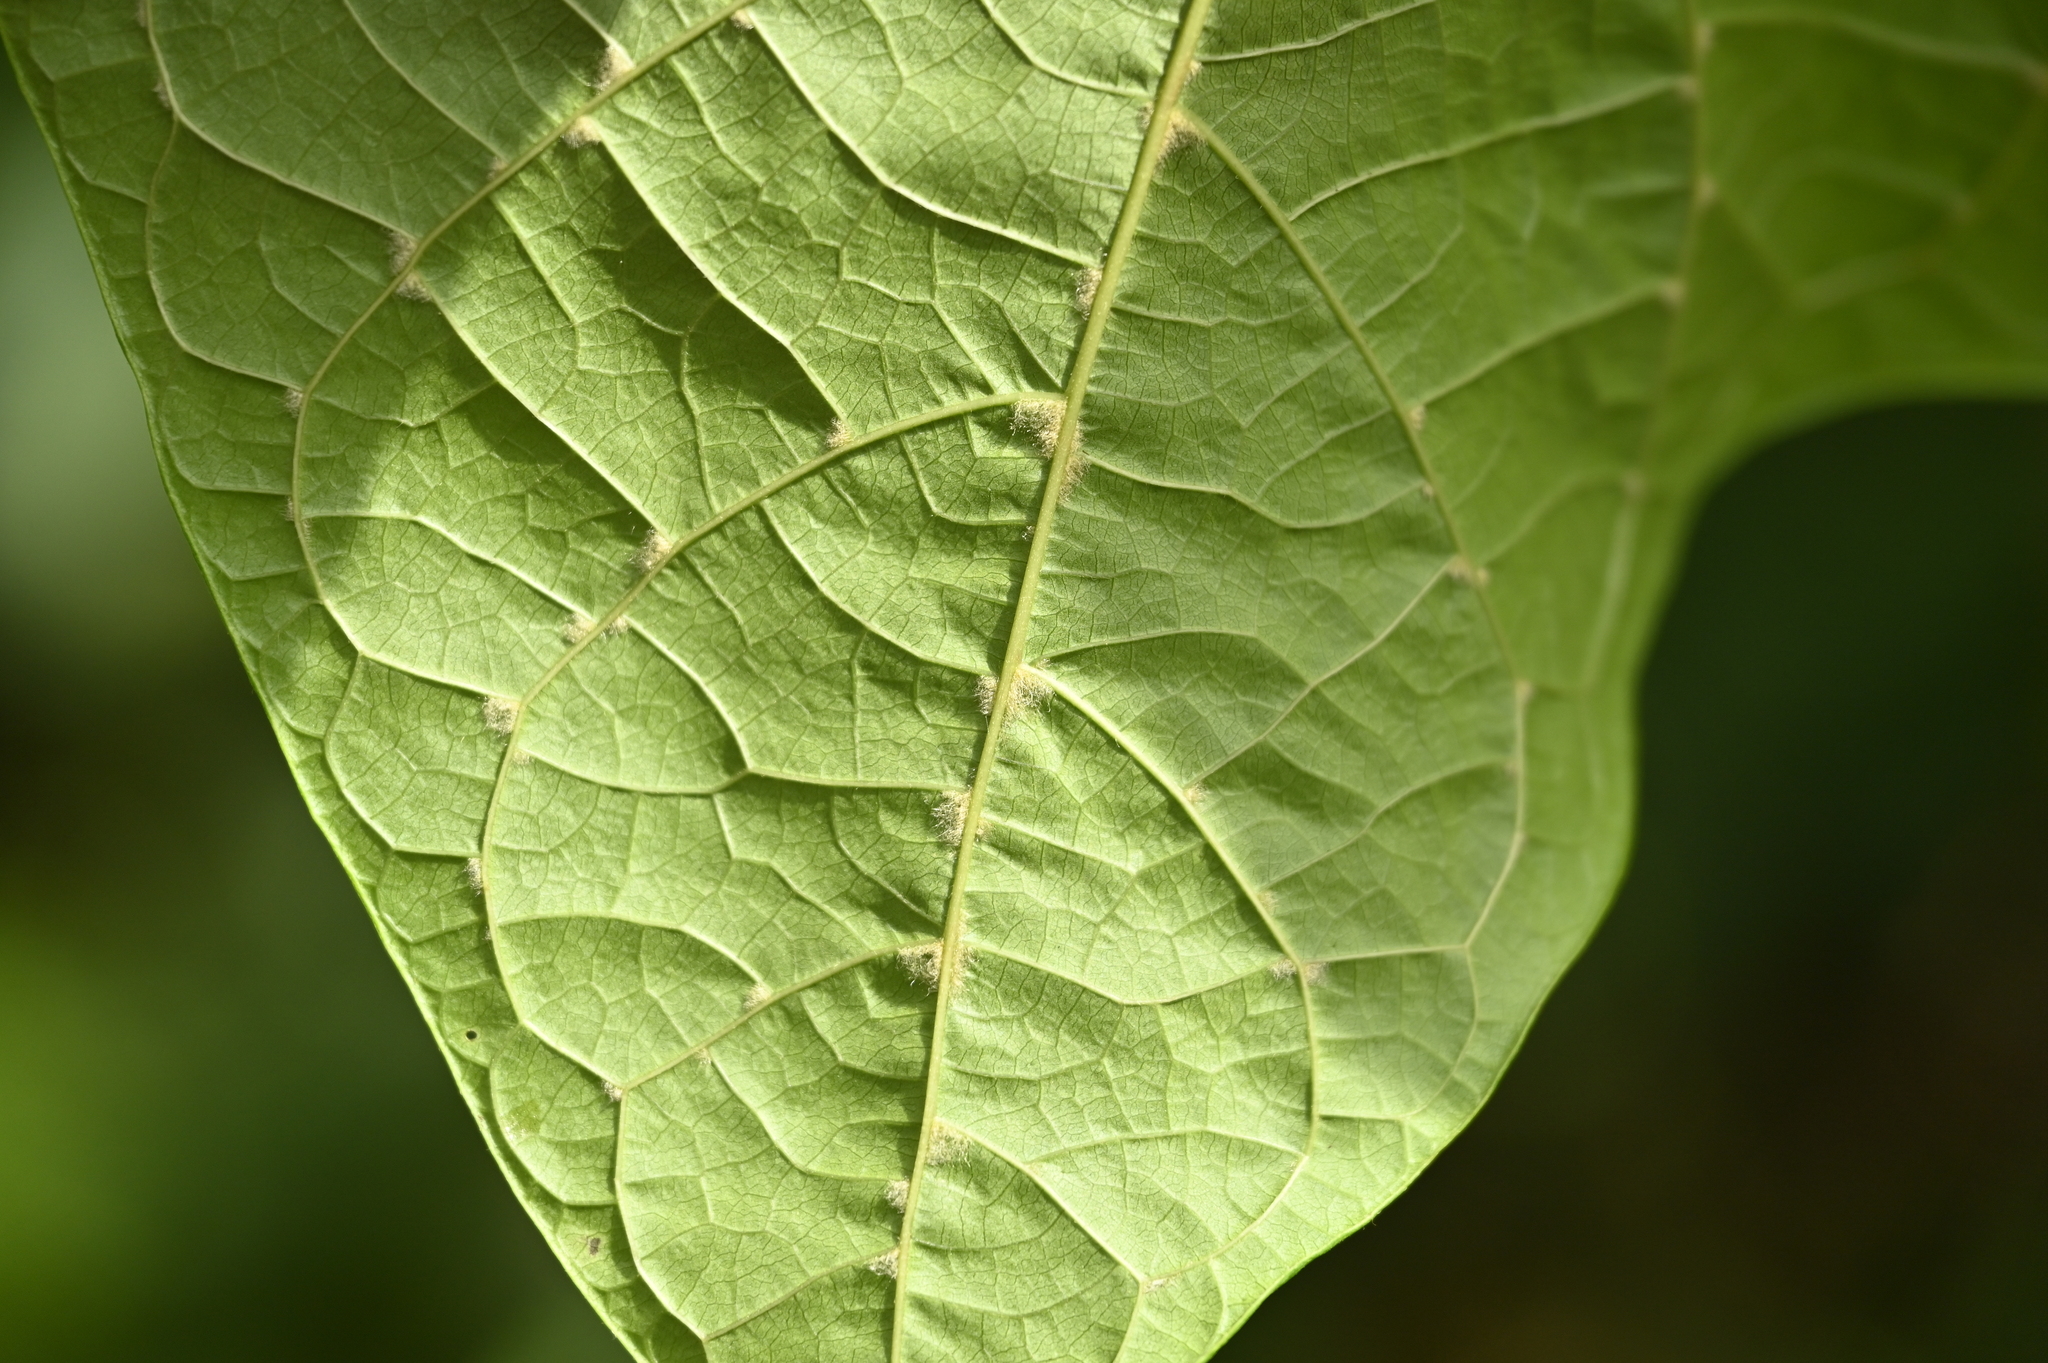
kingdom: Plantae
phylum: Tracheophyta
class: Magnoliopsida
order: Cornales
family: Cornaceae
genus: Alangium
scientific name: Alangium chinense
